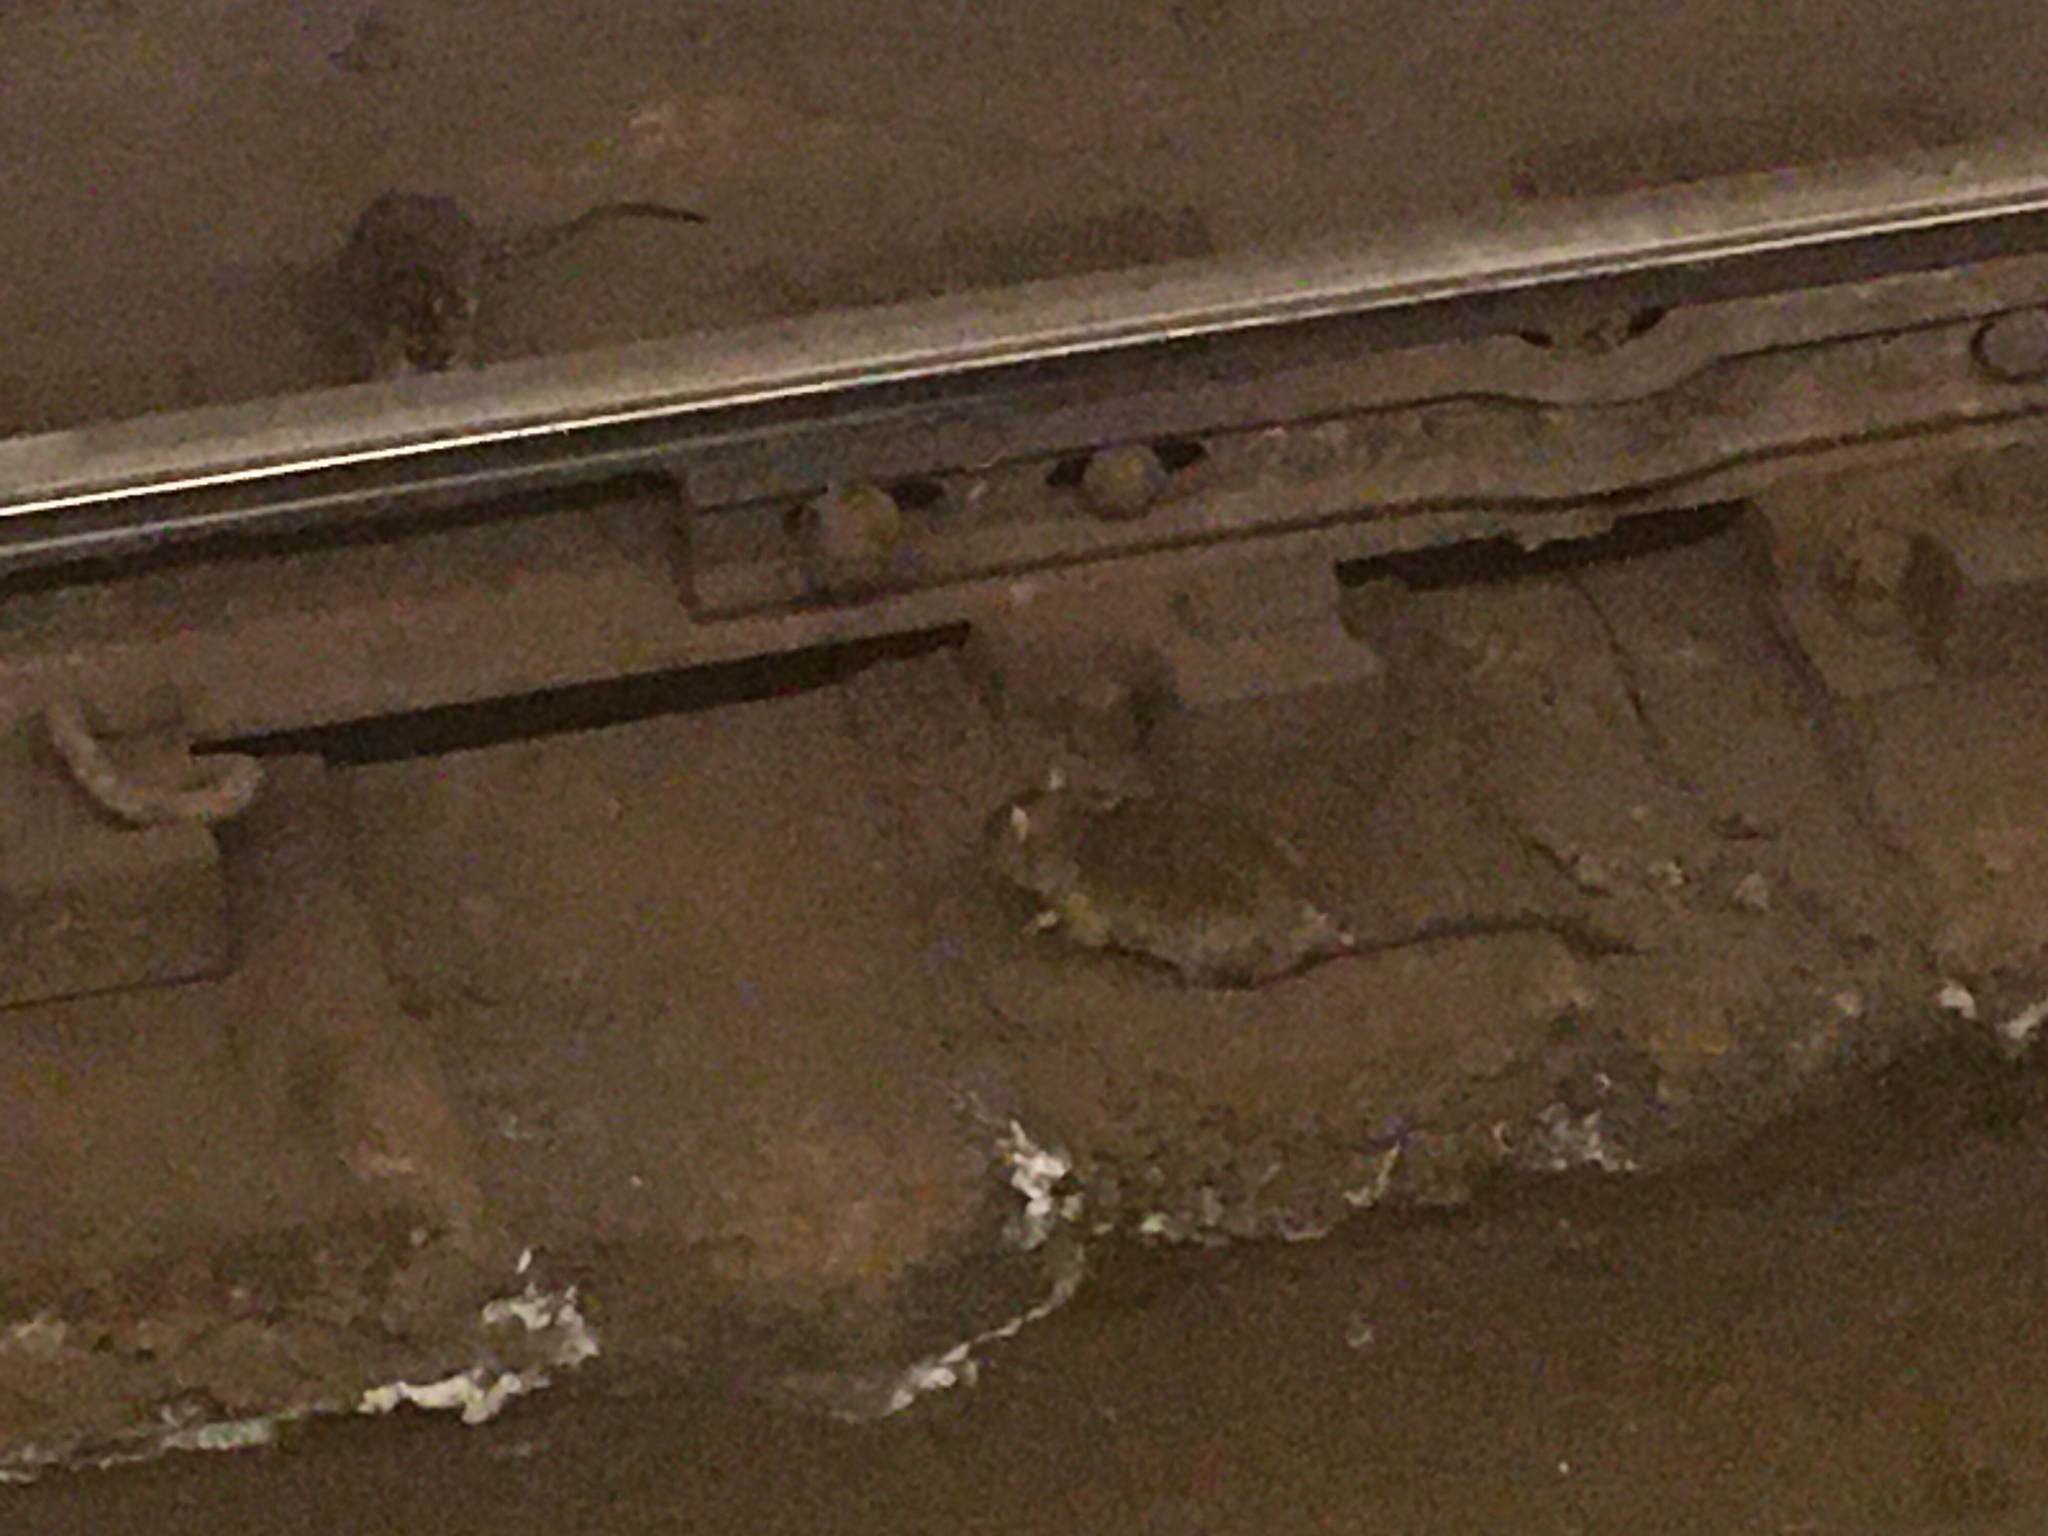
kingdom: Animalia
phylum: Chordata
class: Mammalia
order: Rodentia
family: Muridae
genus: Rattus
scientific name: Rattus norvegicus
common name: Brown rat
